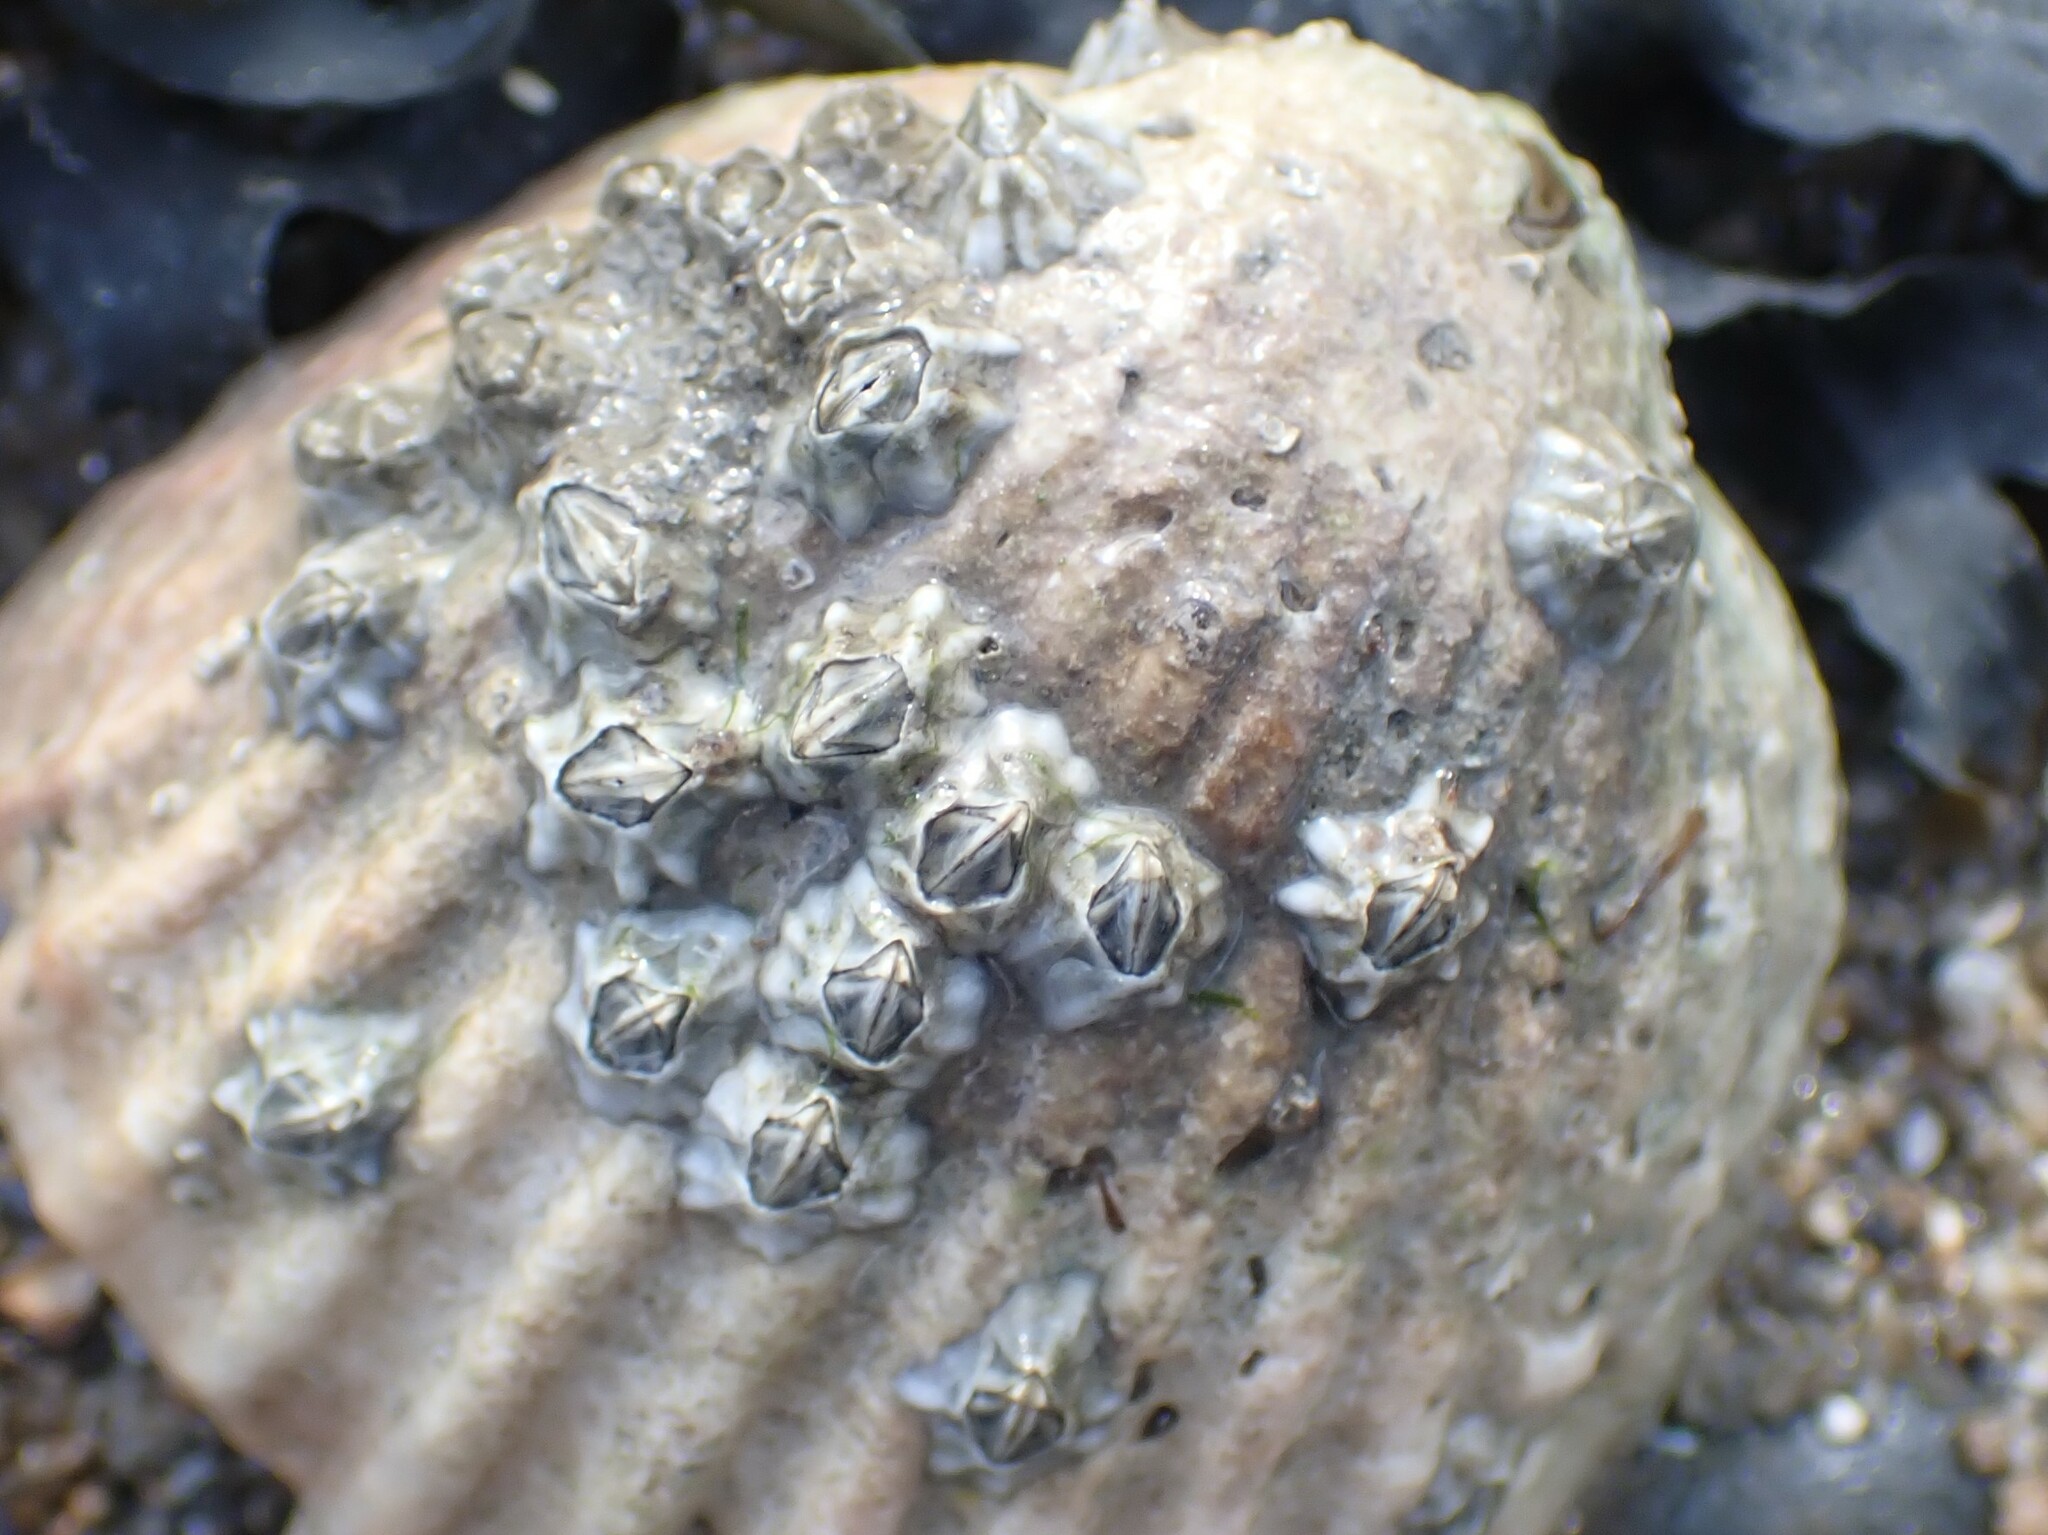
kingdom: Animalia
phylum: Arthropoda
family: Elminiidae
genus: Austrominius
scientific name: Austrominius modestus
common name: Australasian barnacle
